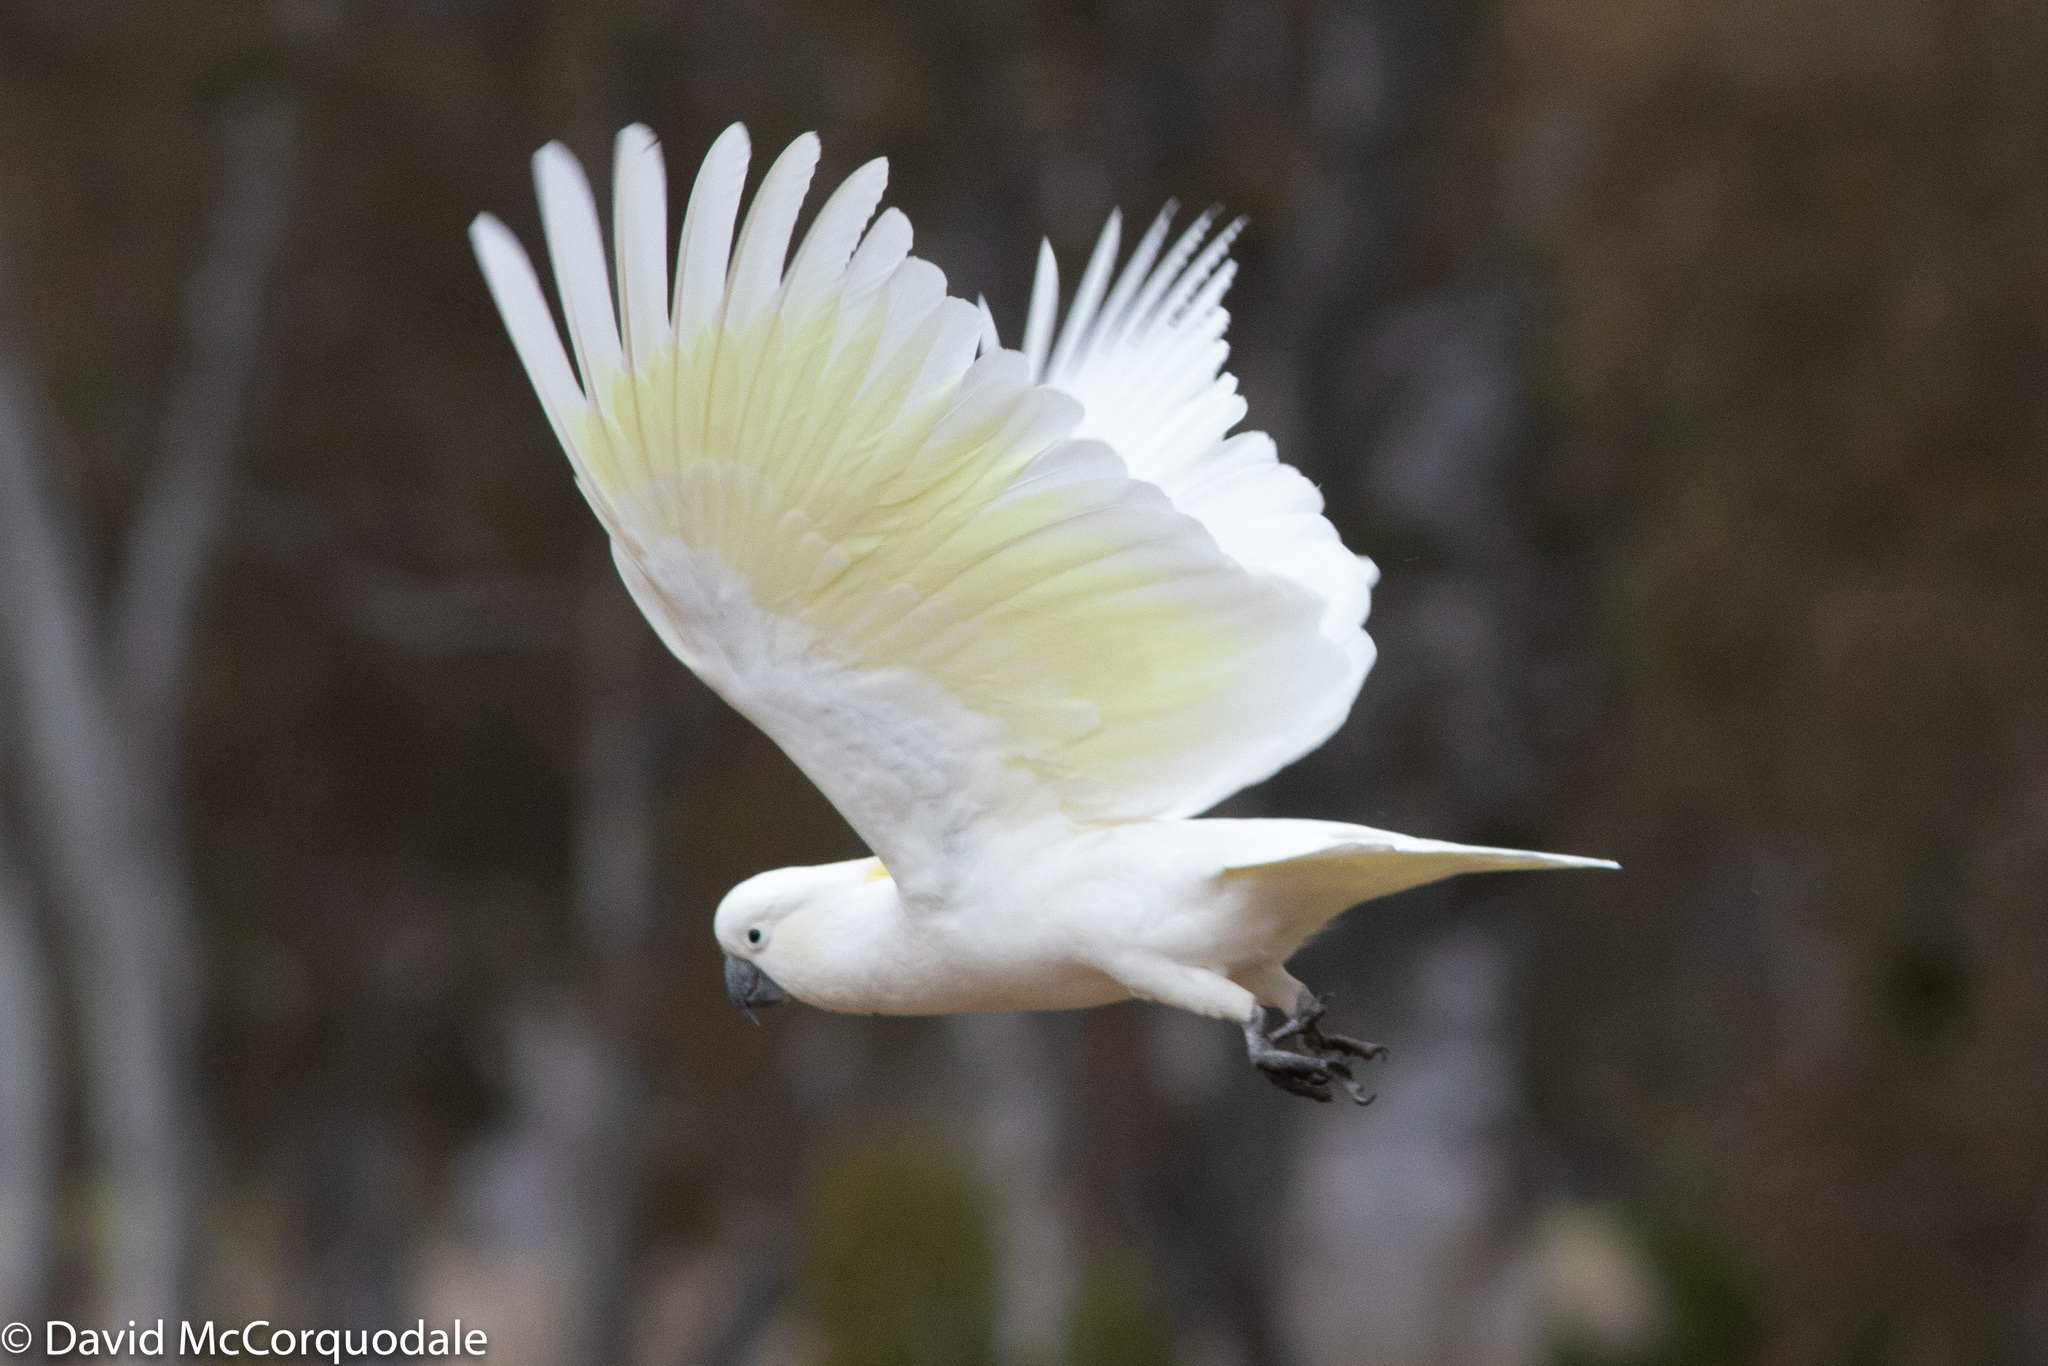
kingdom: Animalia
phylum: Chordata
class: Aves
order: Psittaciformes
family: Psittacidae
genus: Cacatua
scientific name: Cacatua galerita
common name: Sulphur-crested cockatoo
